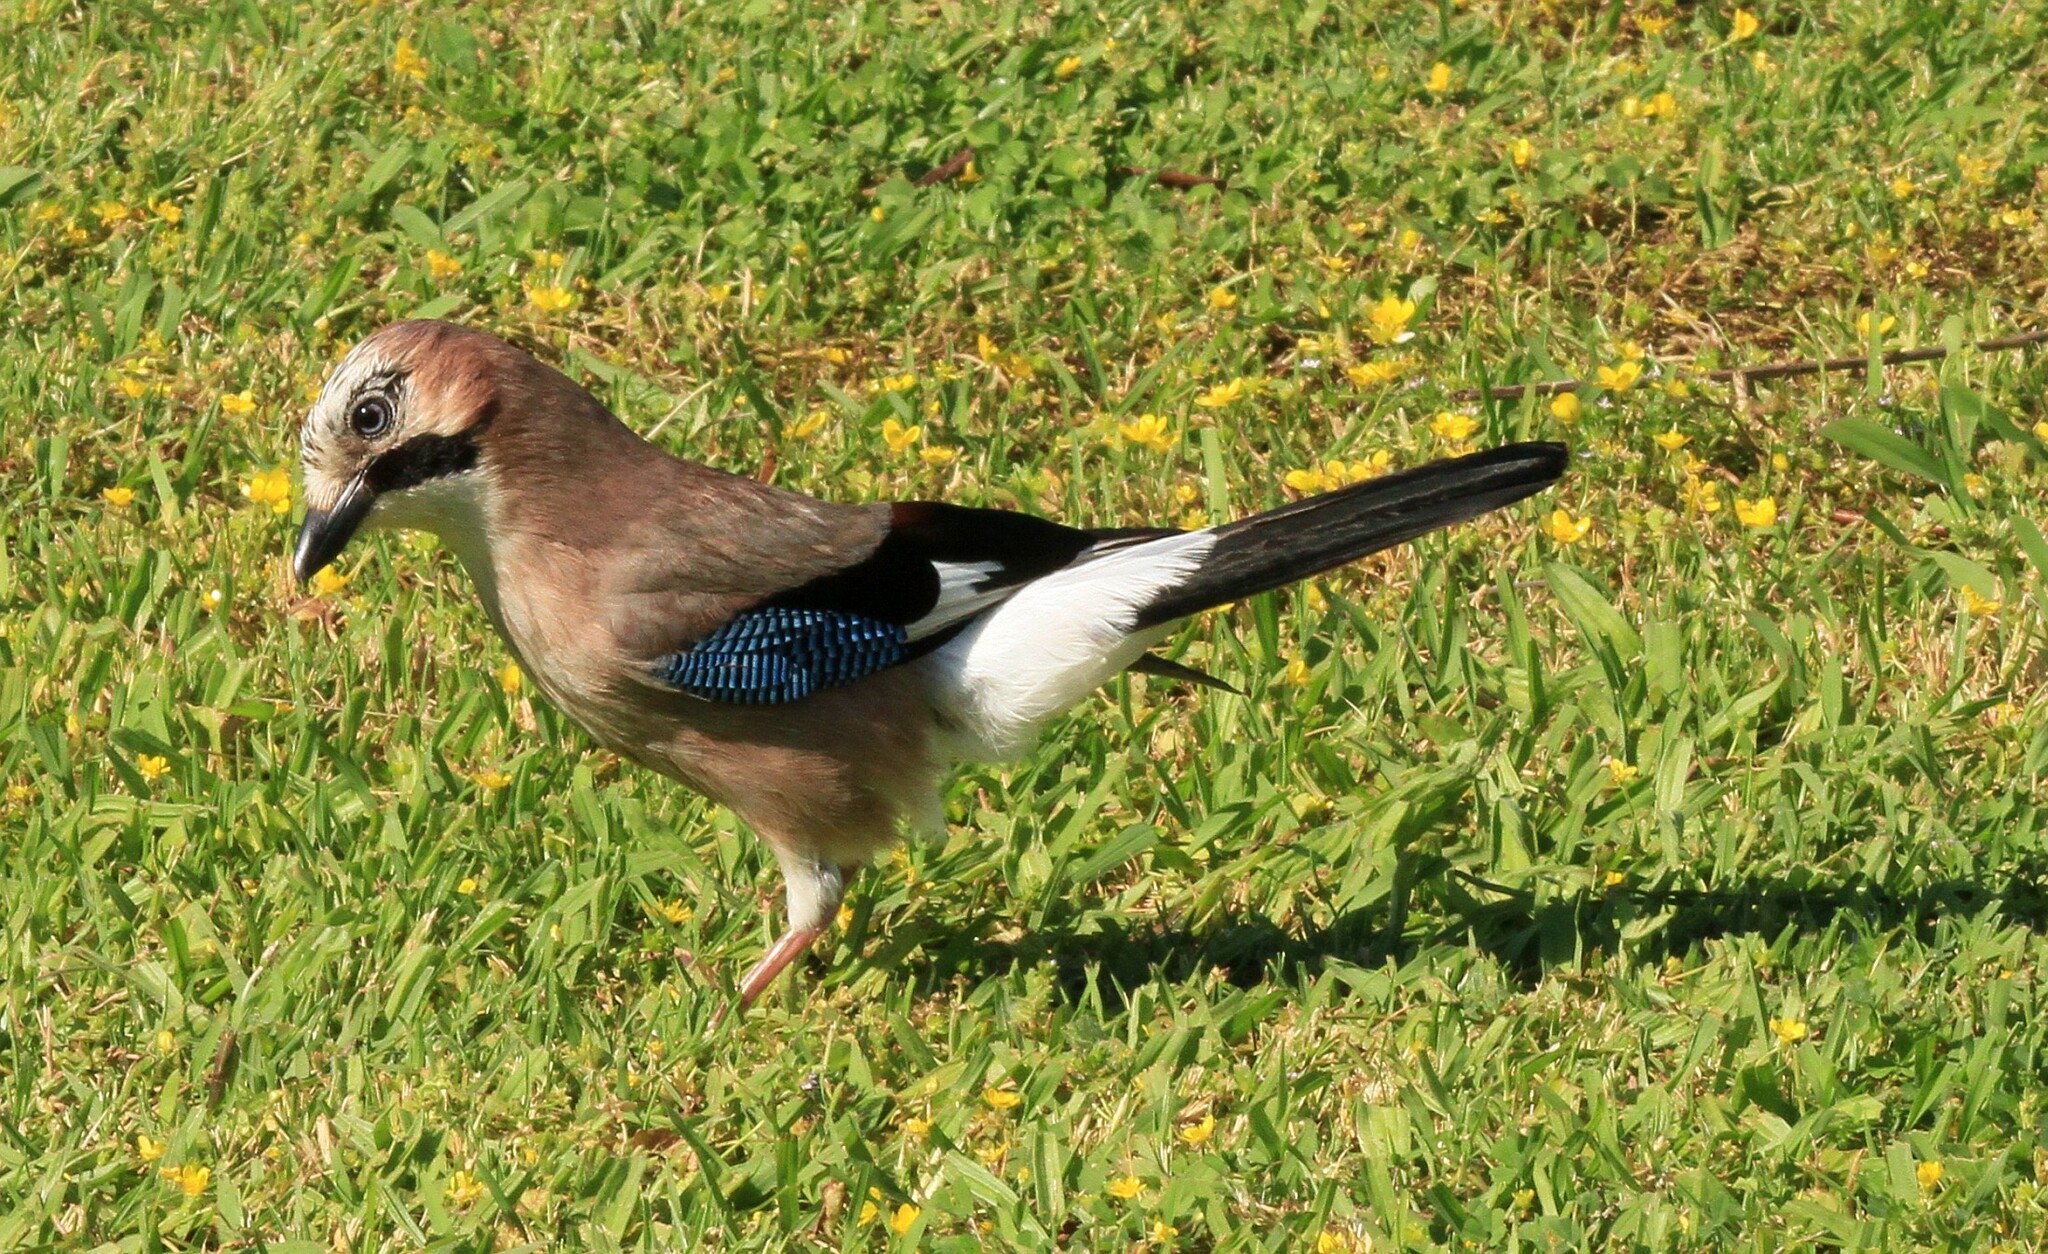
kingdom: Animalia
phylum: Chordata
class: Aves
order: Passeriformes
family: Corvidae
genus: Garrulus
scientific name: Garrulus glandarius
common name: Eurasian jay
